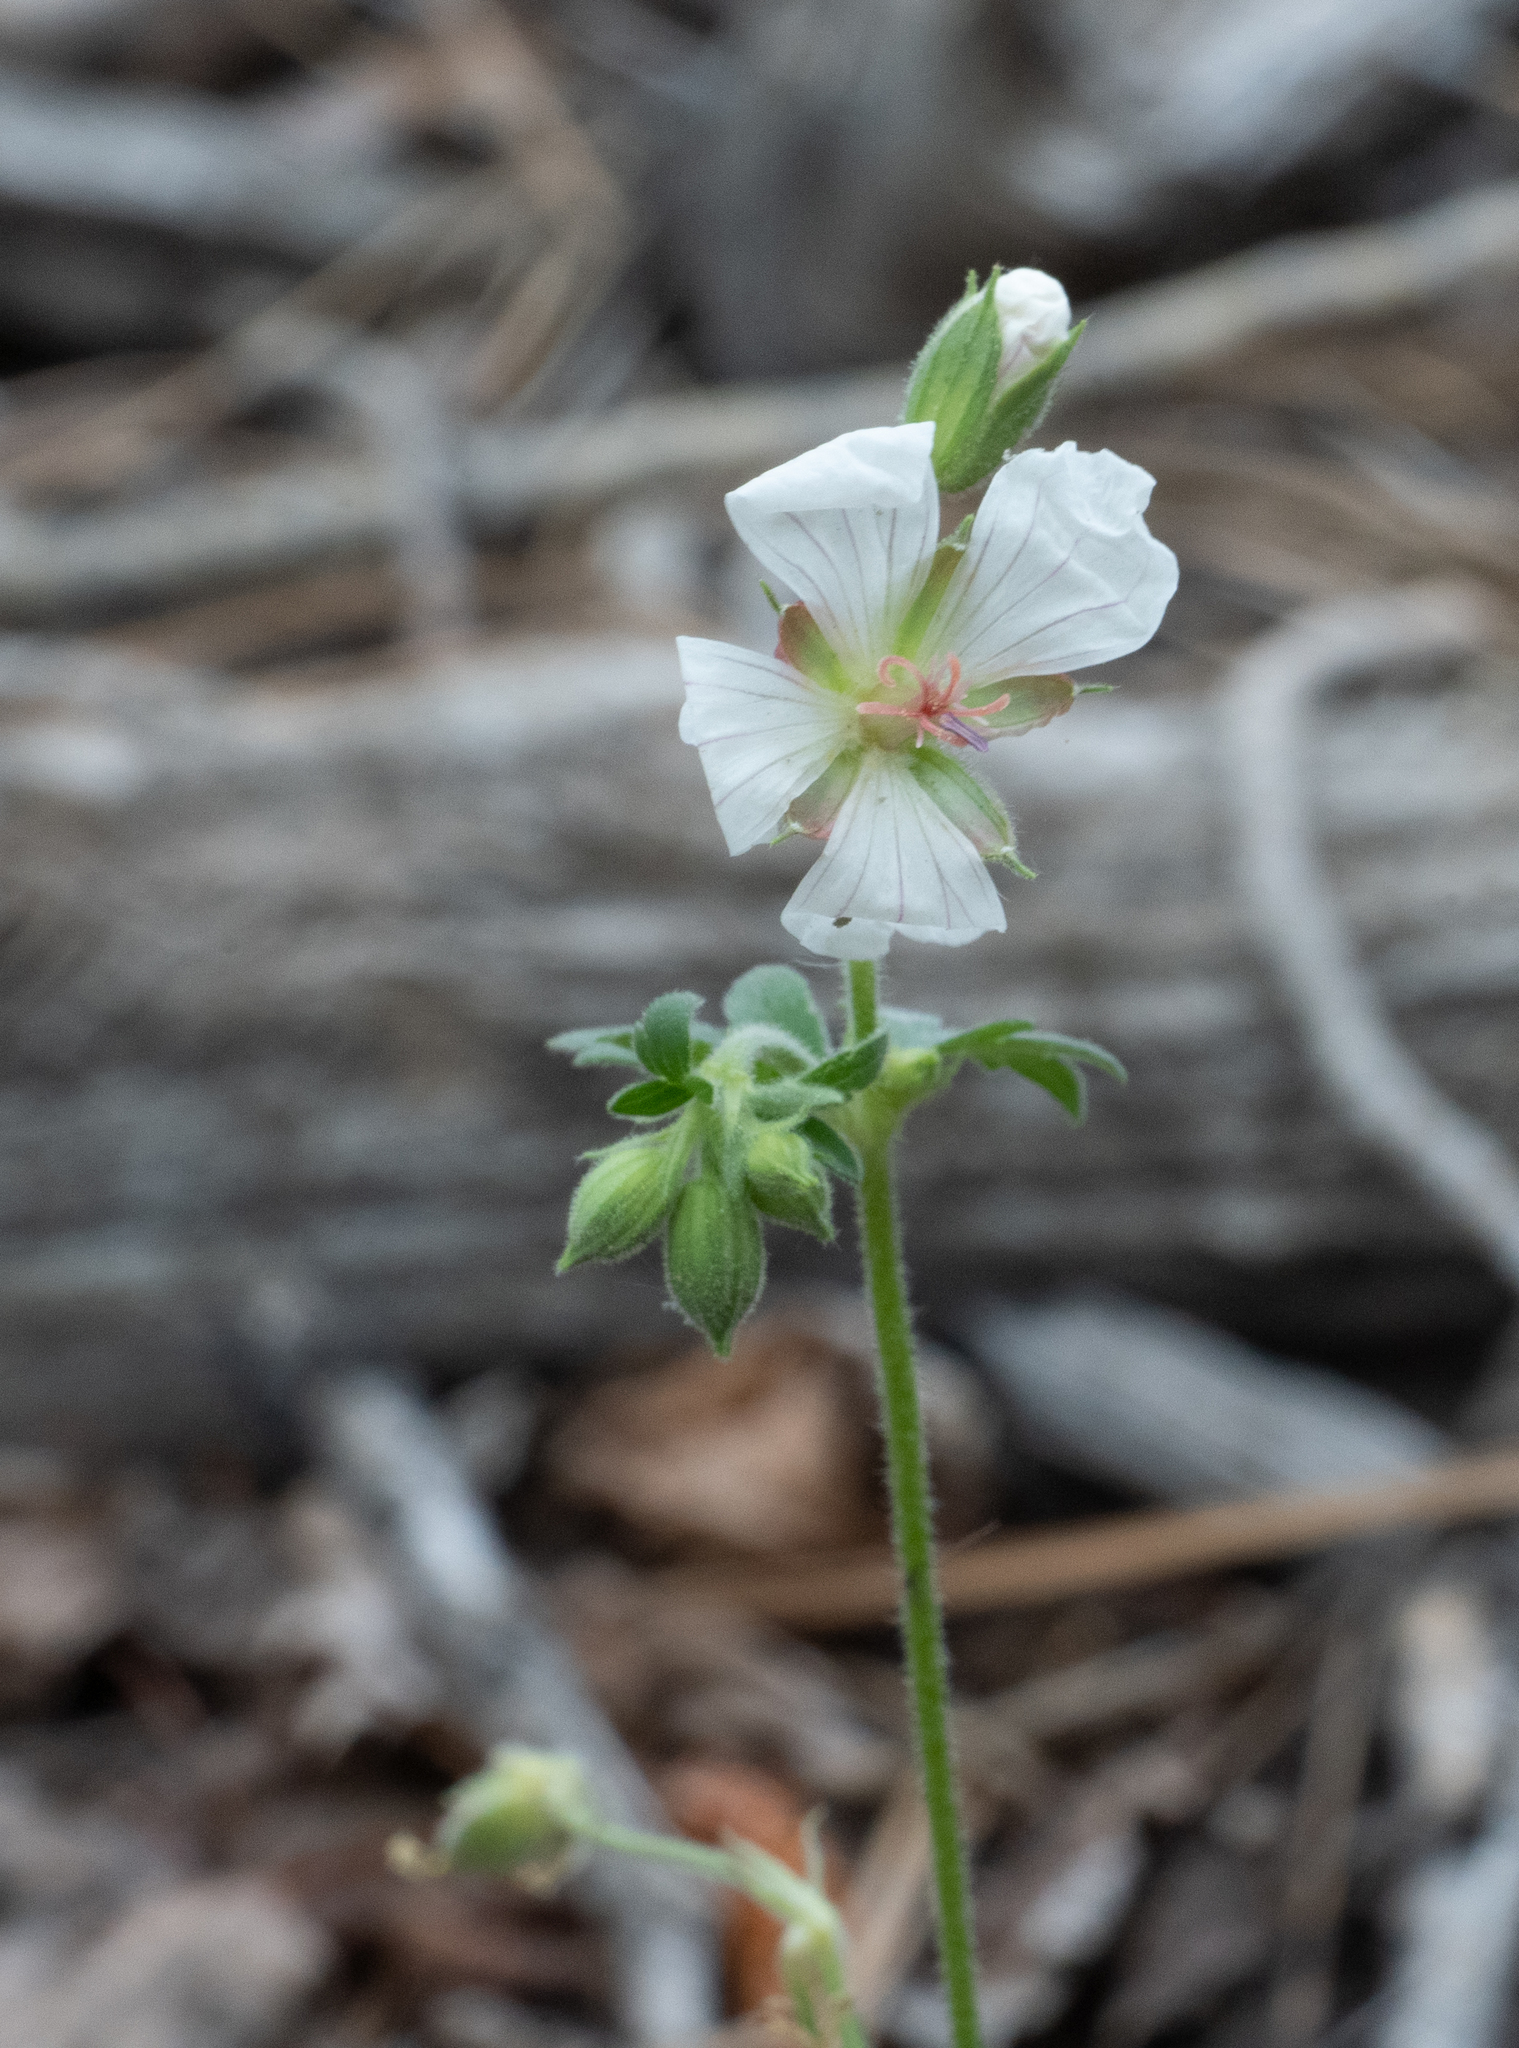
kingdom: Plantae
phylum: Tracheophyta
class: Magnoliopsida
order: Geraniales
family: Geraniaceae
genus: Geranium
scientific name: Geranium richardsonii
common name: Richardson's crane's-bill
